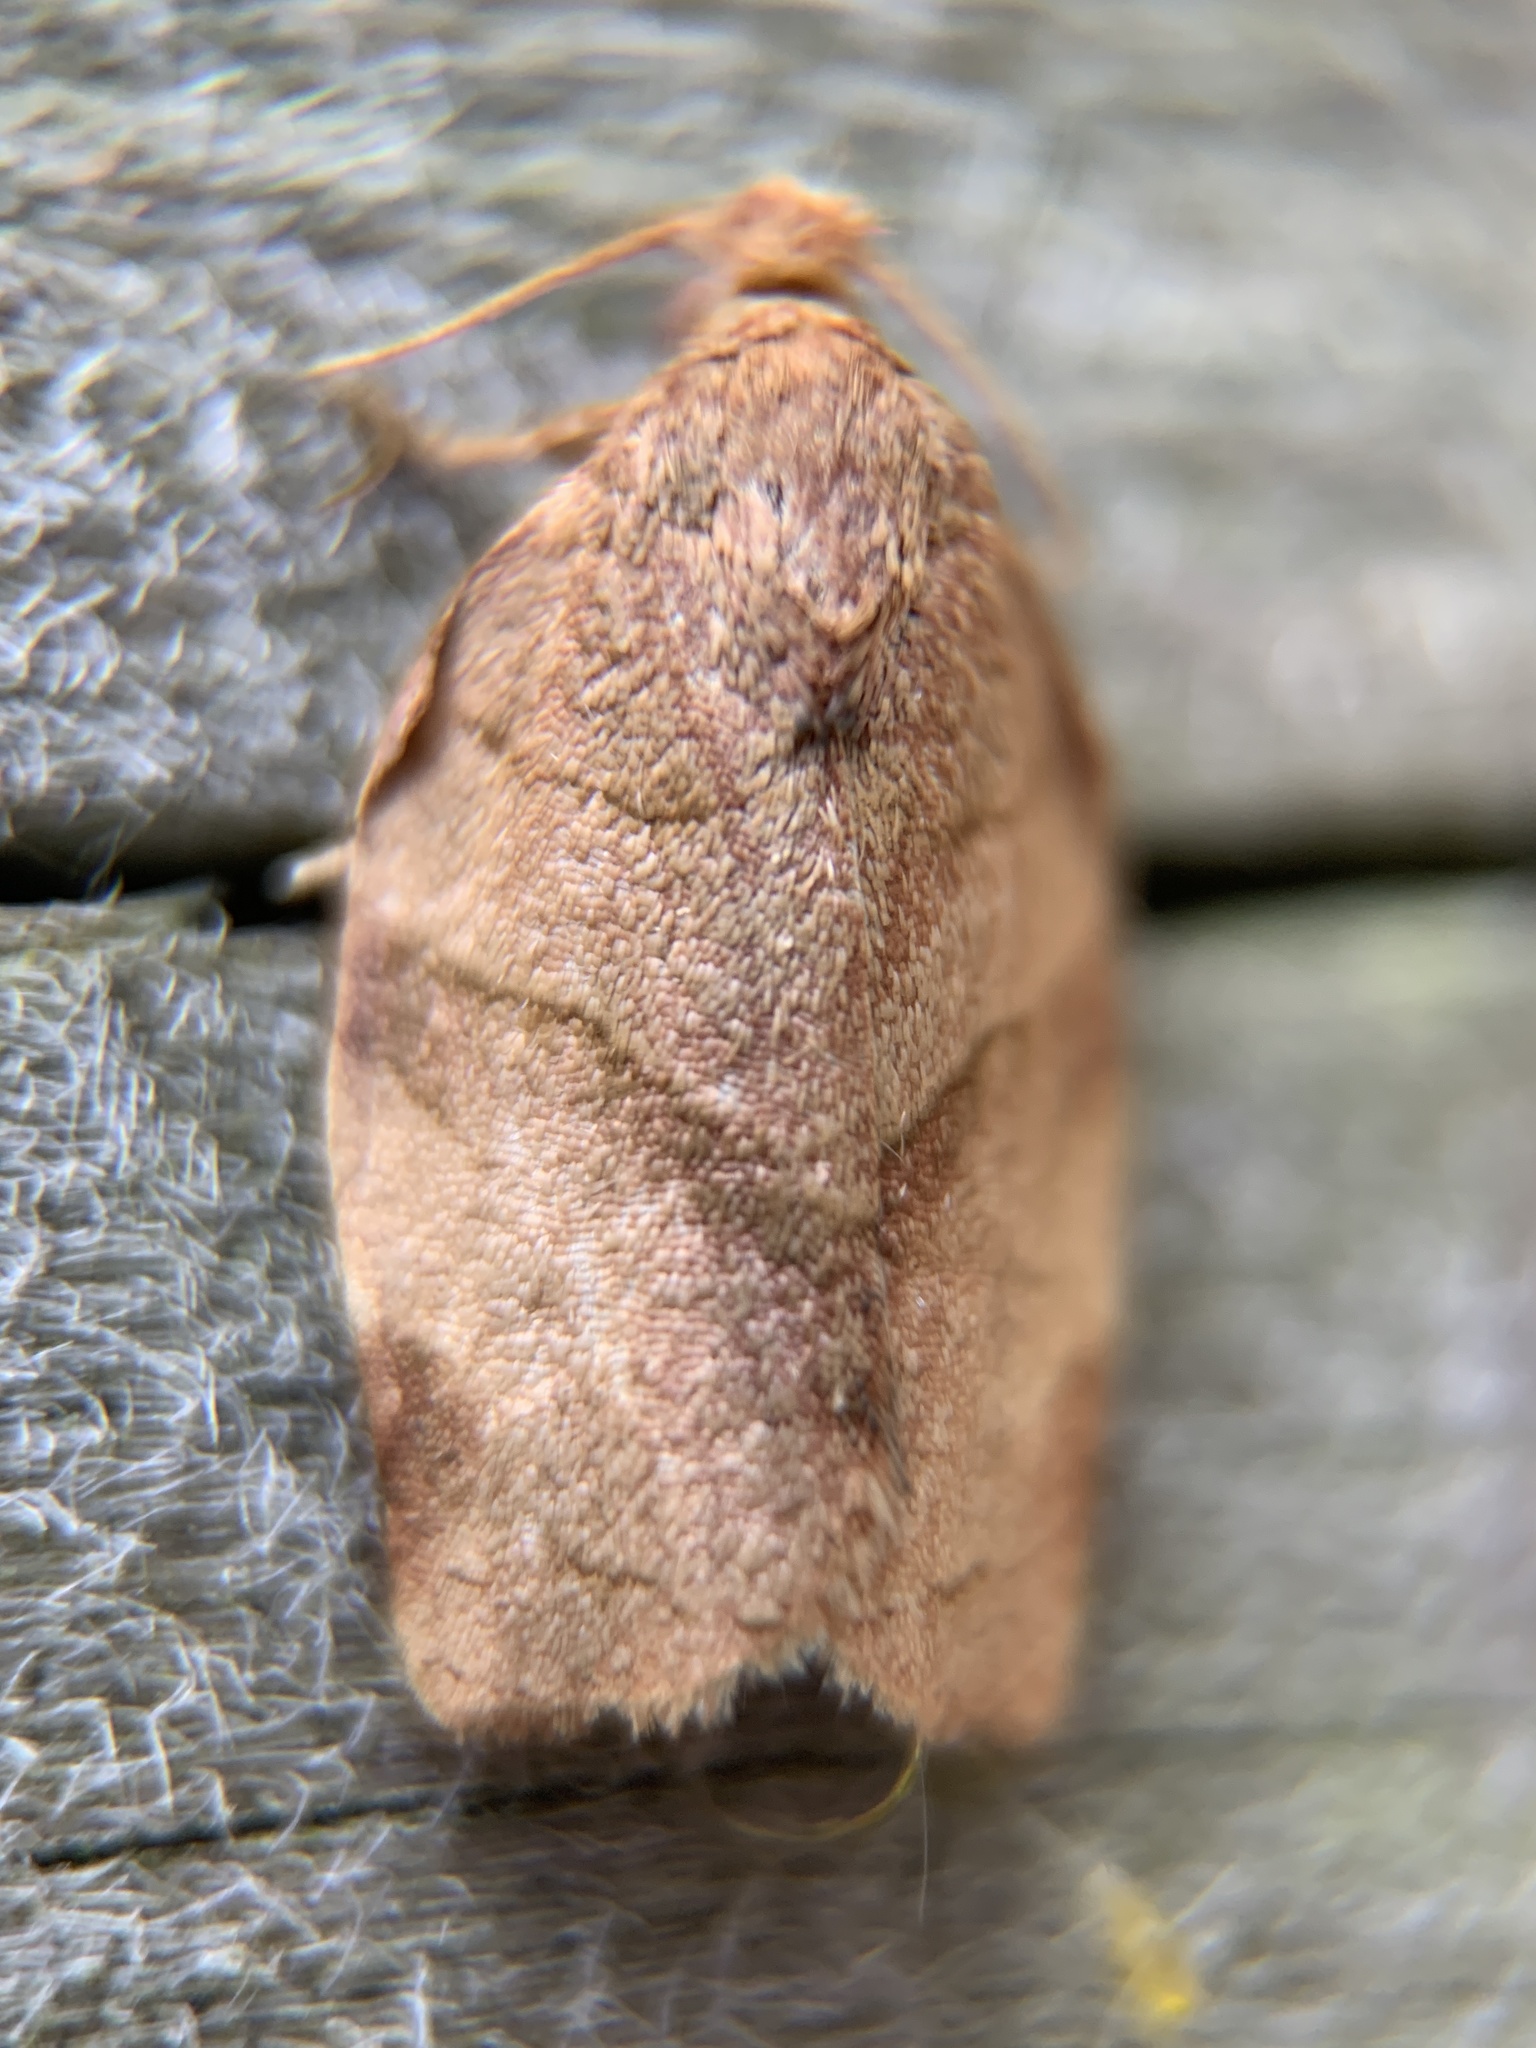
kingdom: Animalia
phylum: Arthropoda
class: Insecta
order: Lepidoptera
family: Tortricidae
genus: Choristoneura
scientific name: Choristoneura rosaceana
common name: Oblique-banded leafroller moth
